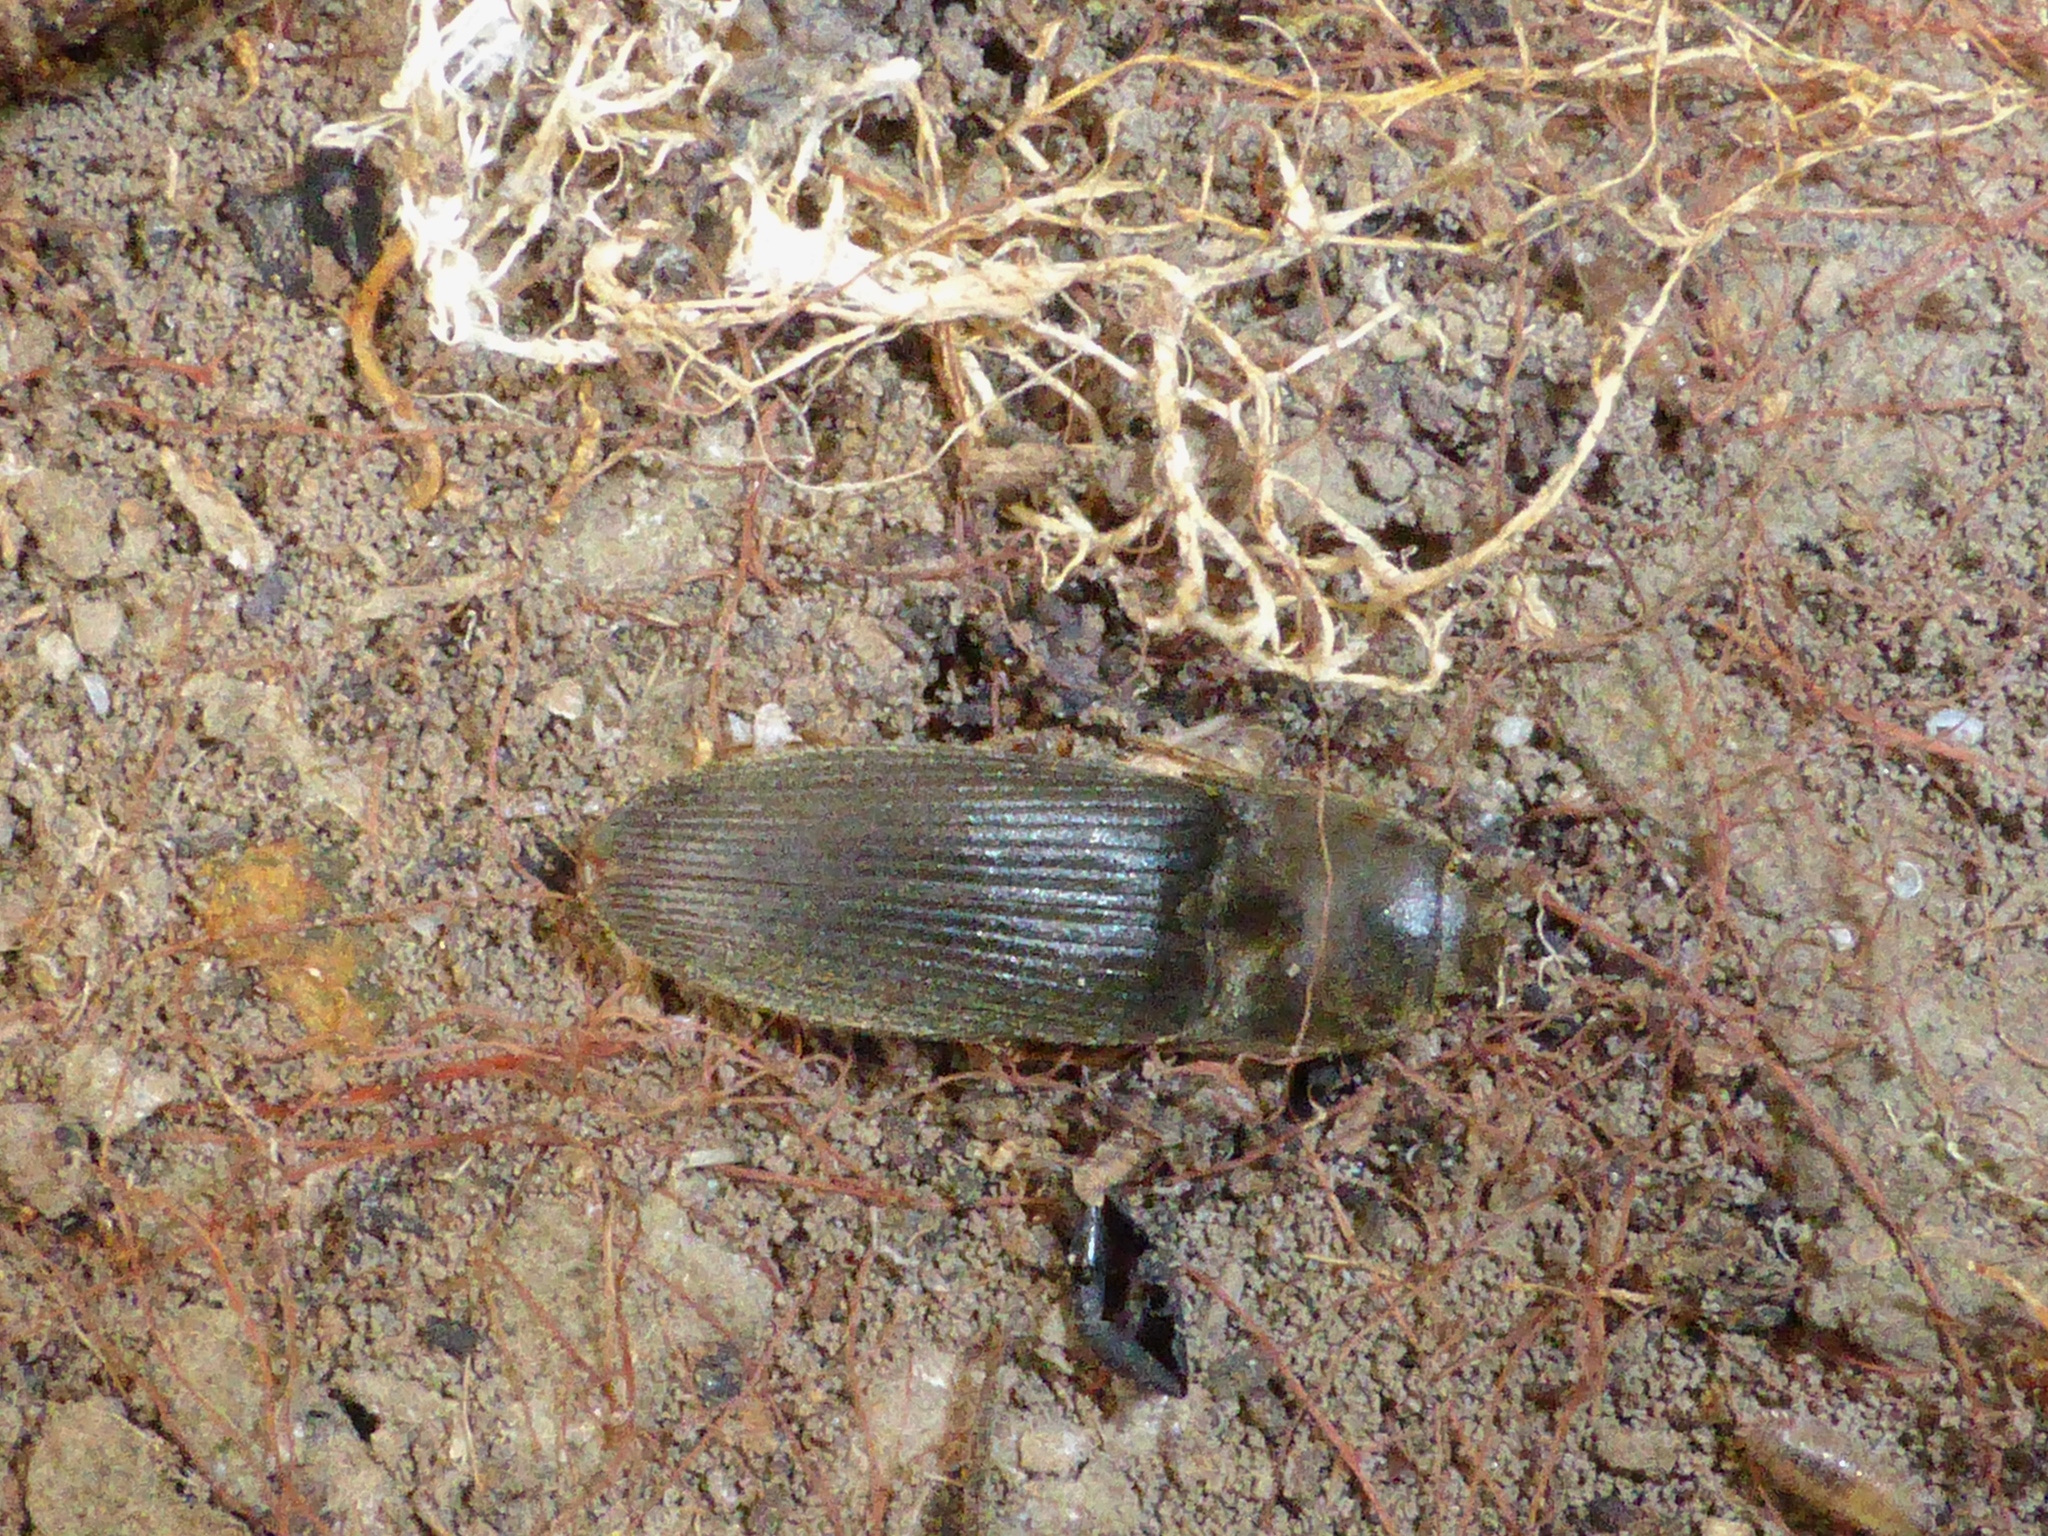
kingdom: Animalia
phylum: Arthropoda
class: Insecta
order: Coleoptera
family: Elateridae
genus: Conoderus
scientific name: Conoderus exsul
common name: Click beetle
